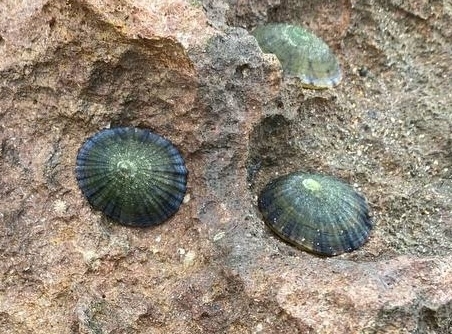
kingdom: Animalia
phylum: Mollusca
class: Gastropoda
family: Nacellidae
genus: Cellana
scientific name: Cellana tramoserica
